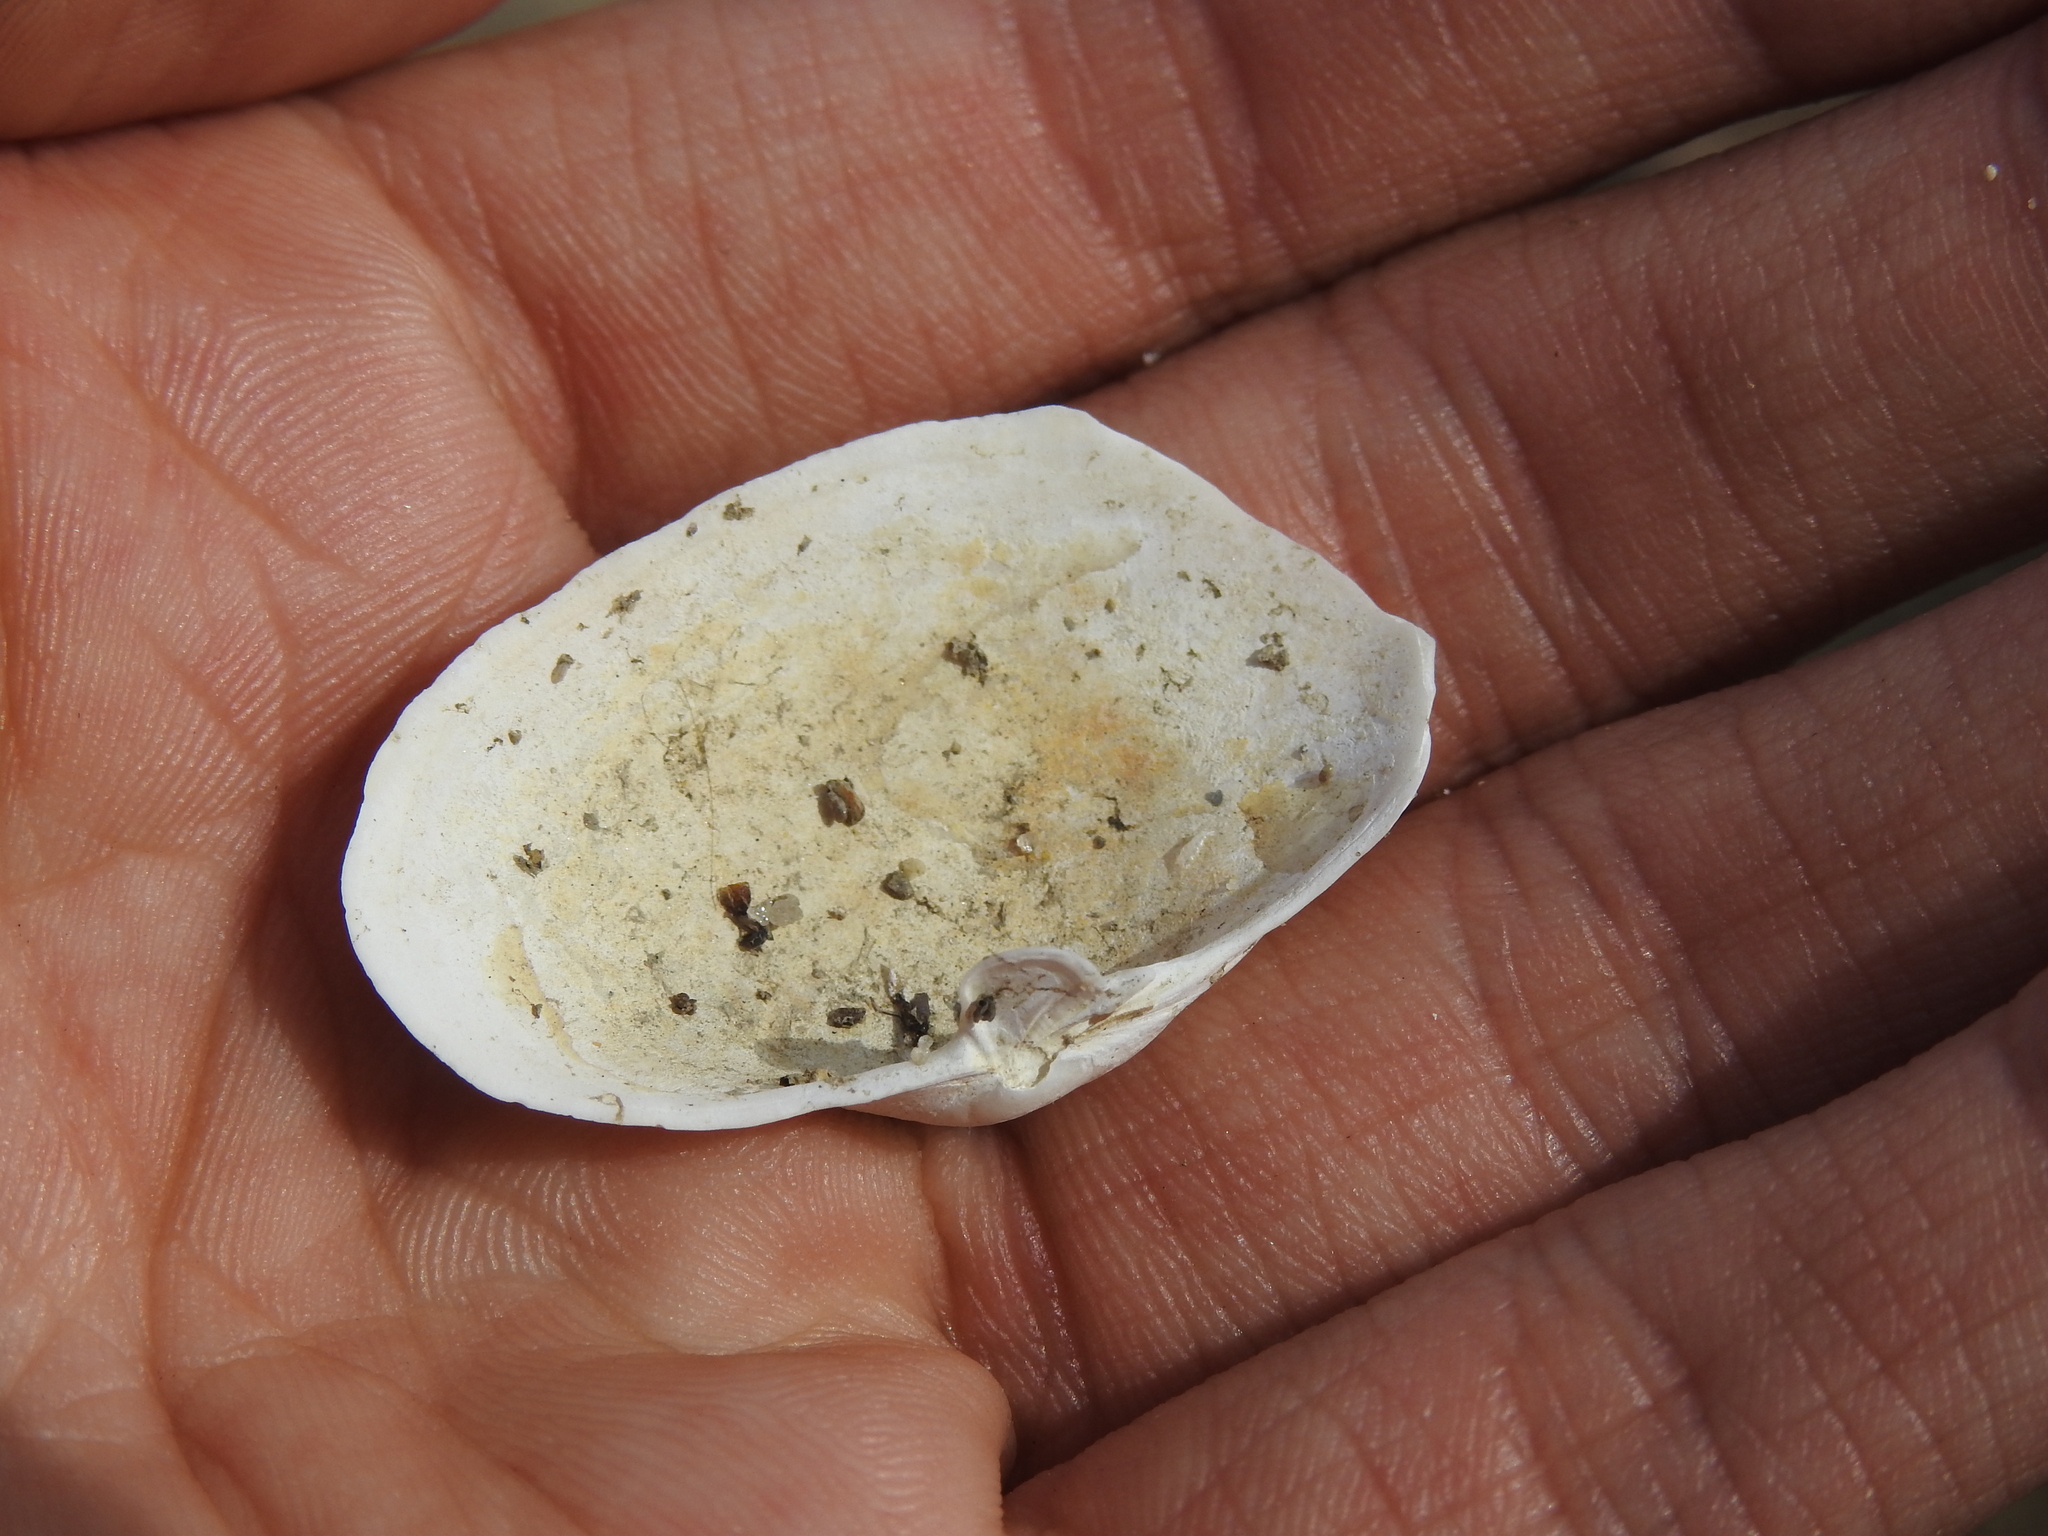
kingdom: Animalia
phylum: Mollusca
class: Bivalvia
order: Myida
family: Myidae
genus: Mya
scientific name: Mya arenaria
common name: Soft-shelled clam
